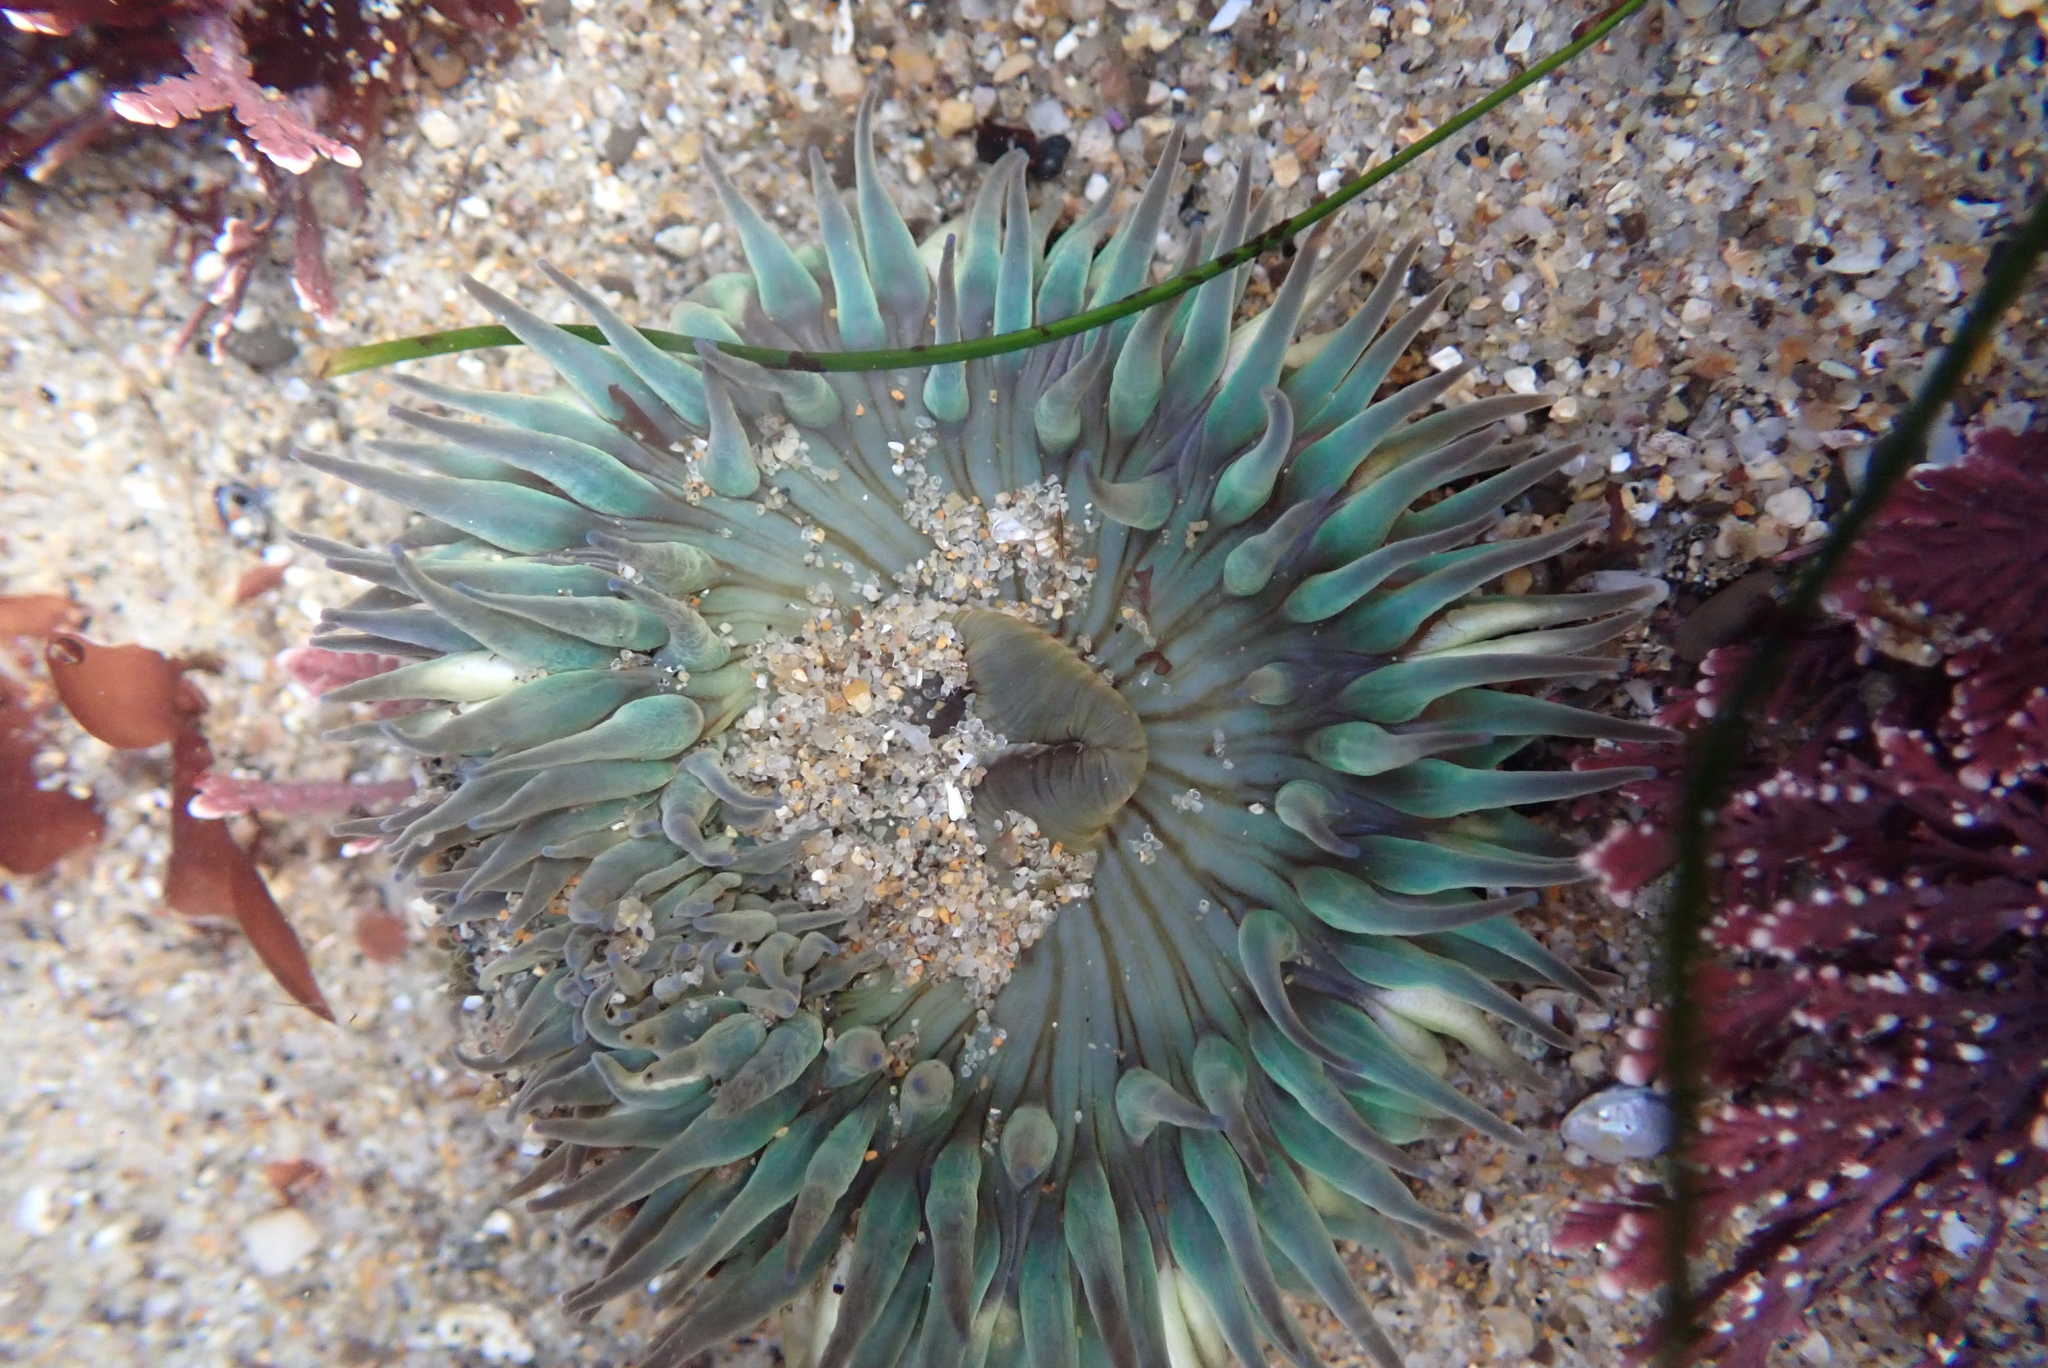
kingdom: Animalia
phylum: Cnidaria
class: Anthozoa
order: Actiniaria
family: Actiniidae
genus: Anthopleura
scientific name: Anthopleura sola
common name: Sun anemone
